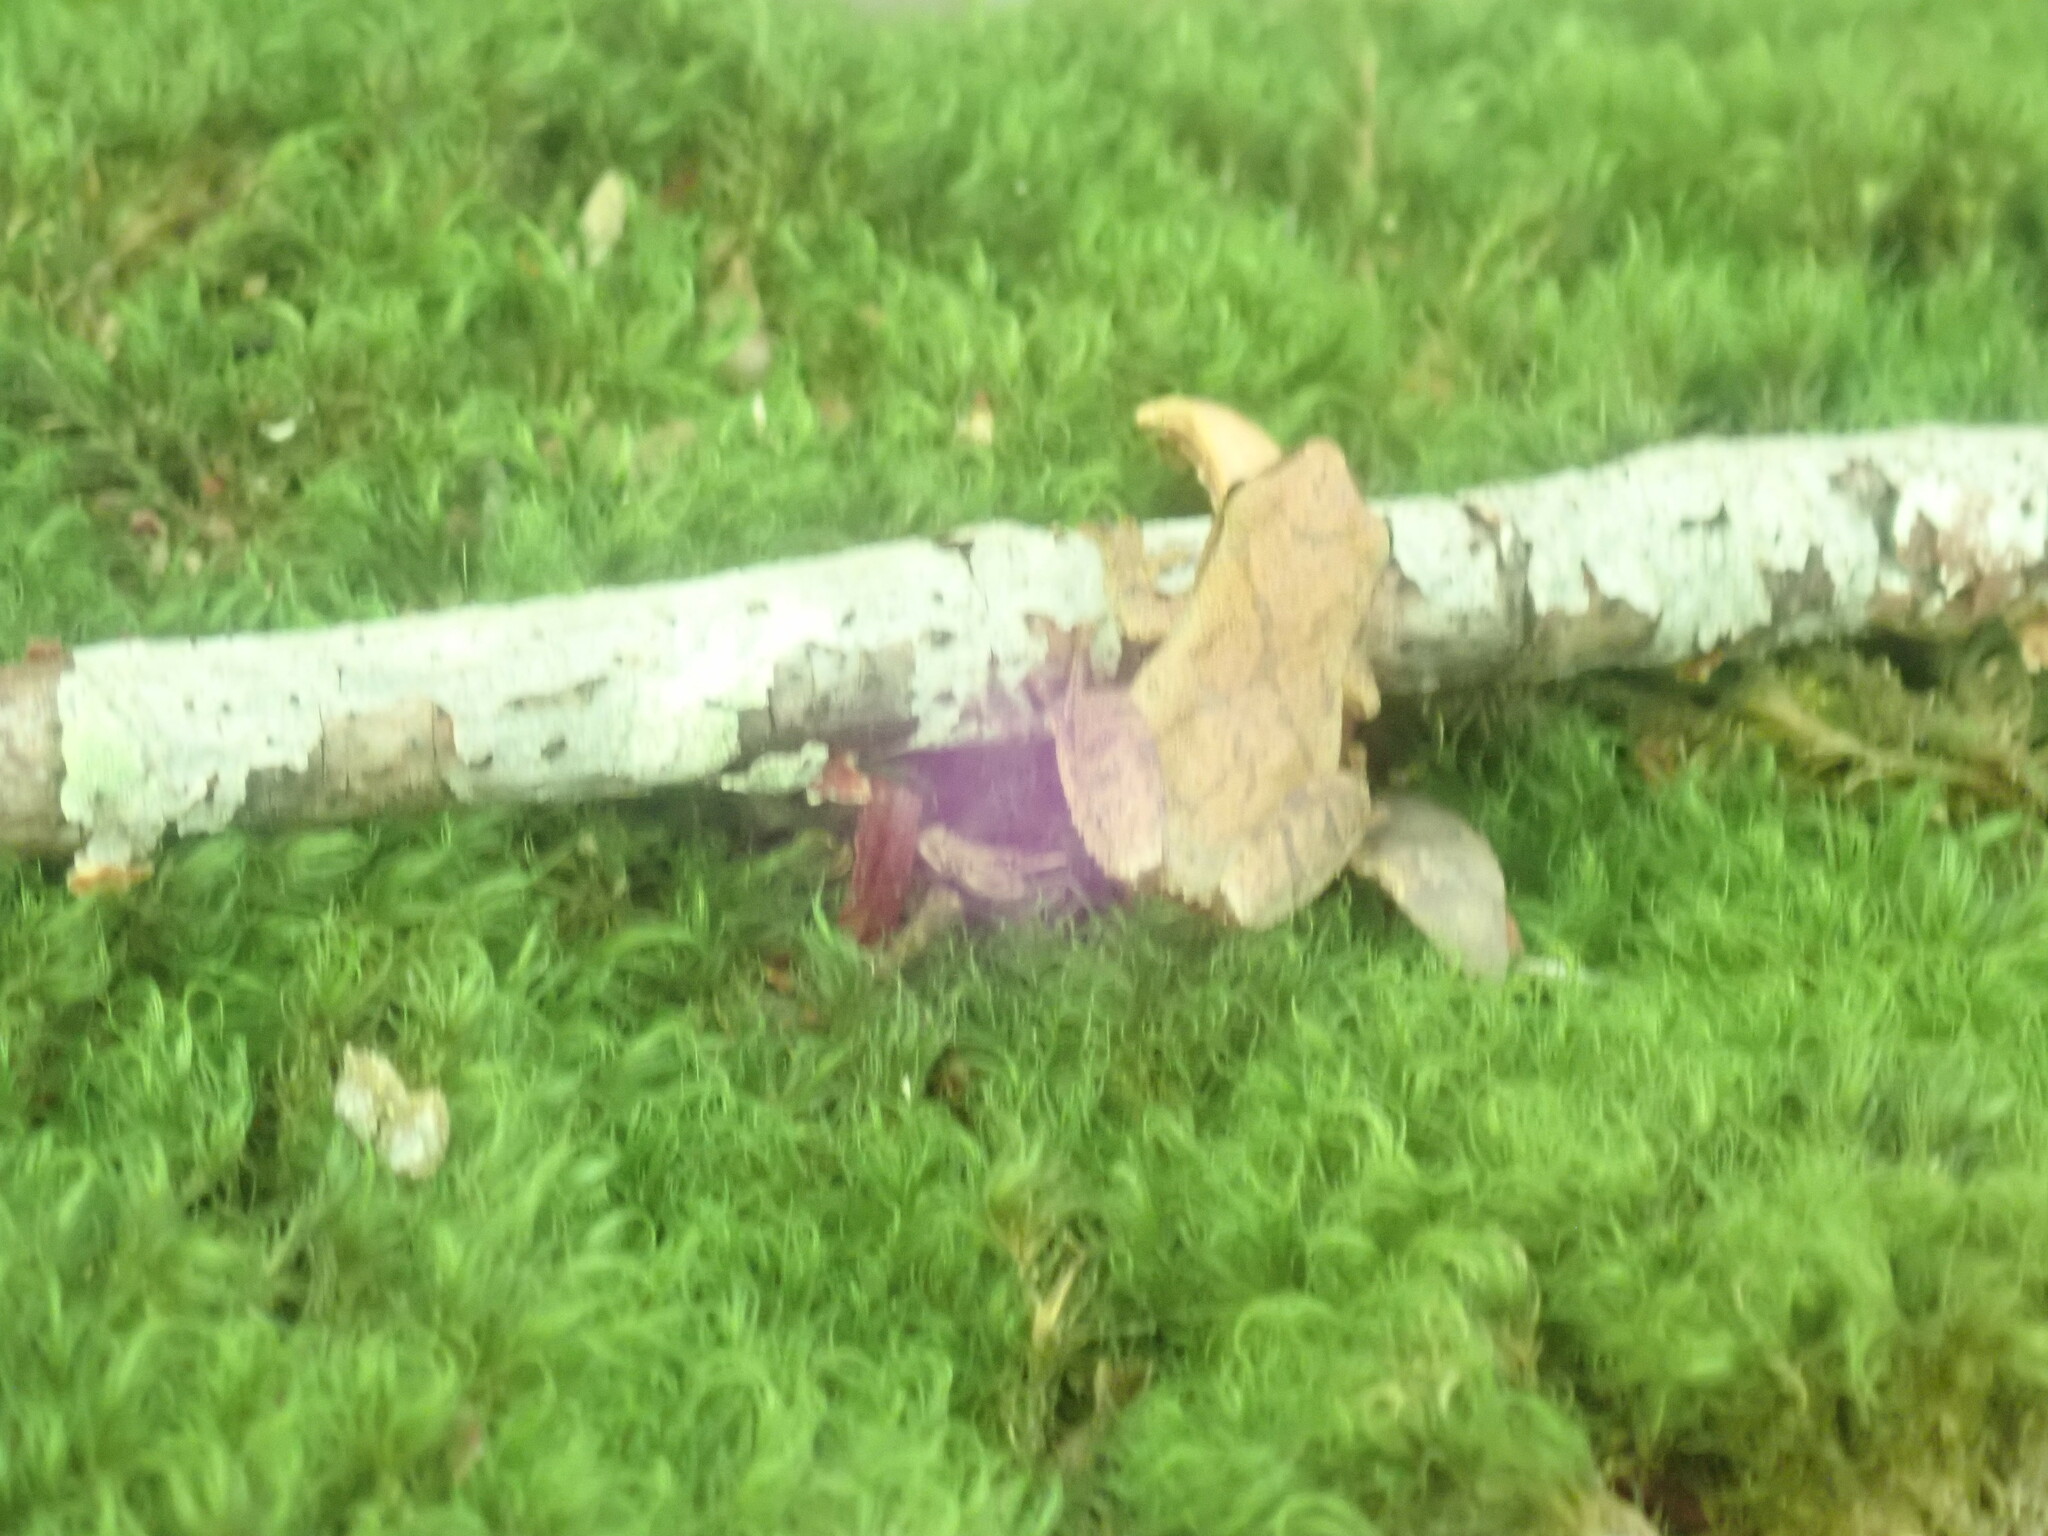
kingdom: Animalia
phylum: Chordata
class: Amphibia
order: Anura
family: Hylidae
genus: Pseudacris
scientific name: Pseudacris crucifer
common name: Spring peeper
